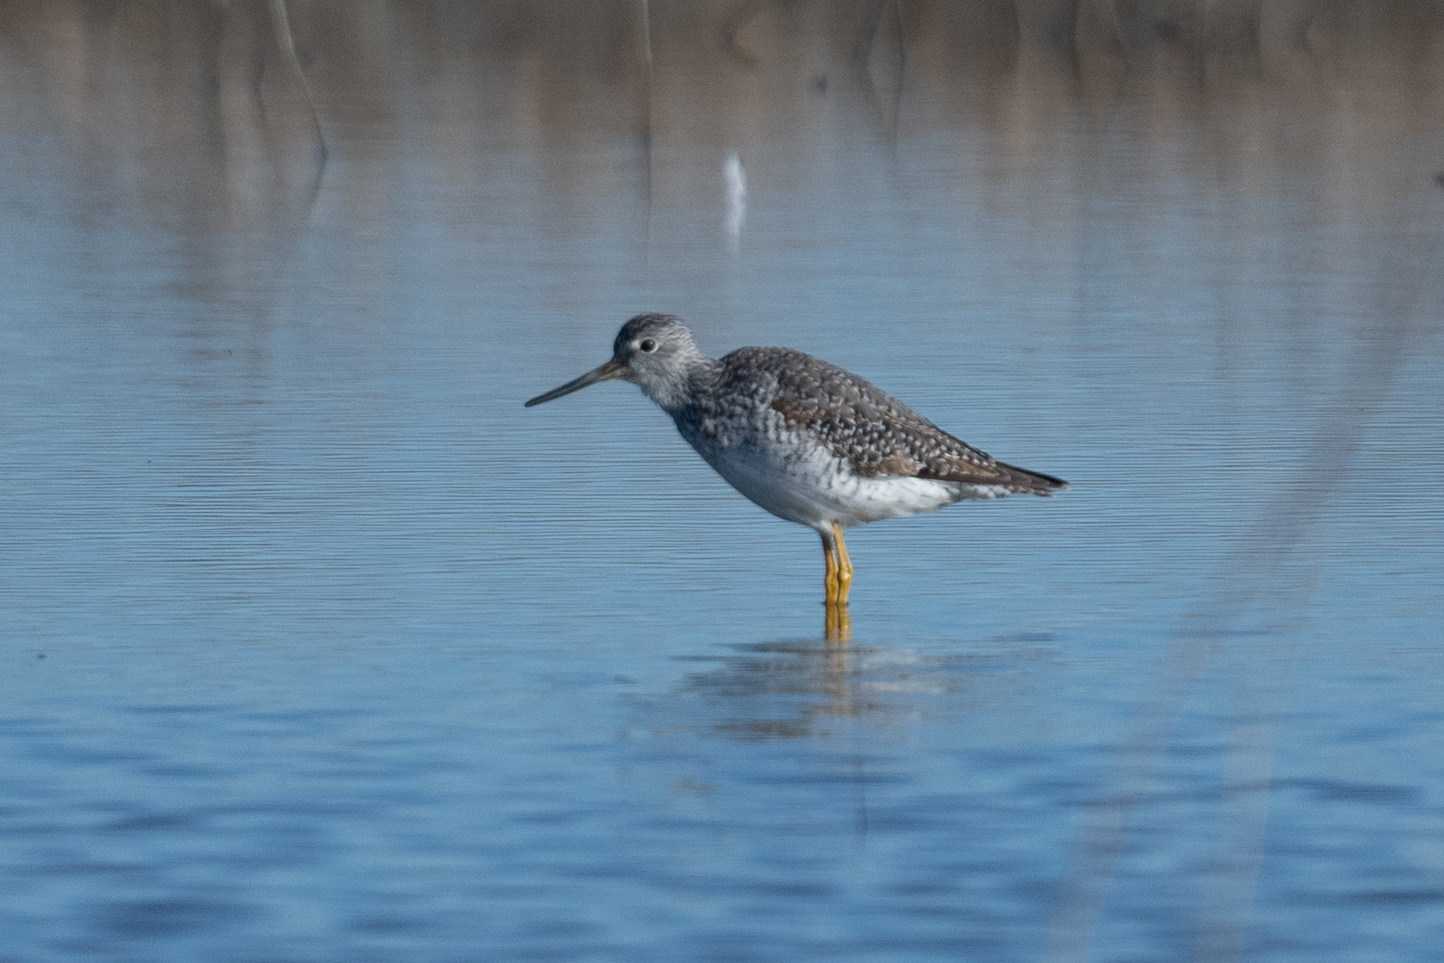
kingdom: Animalia
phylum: Chordata
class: Aves
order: Charadriiformes
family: Scolopacidae
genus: Tringa
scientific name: Tringa melanoleuca
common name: Greater yellowlegs
